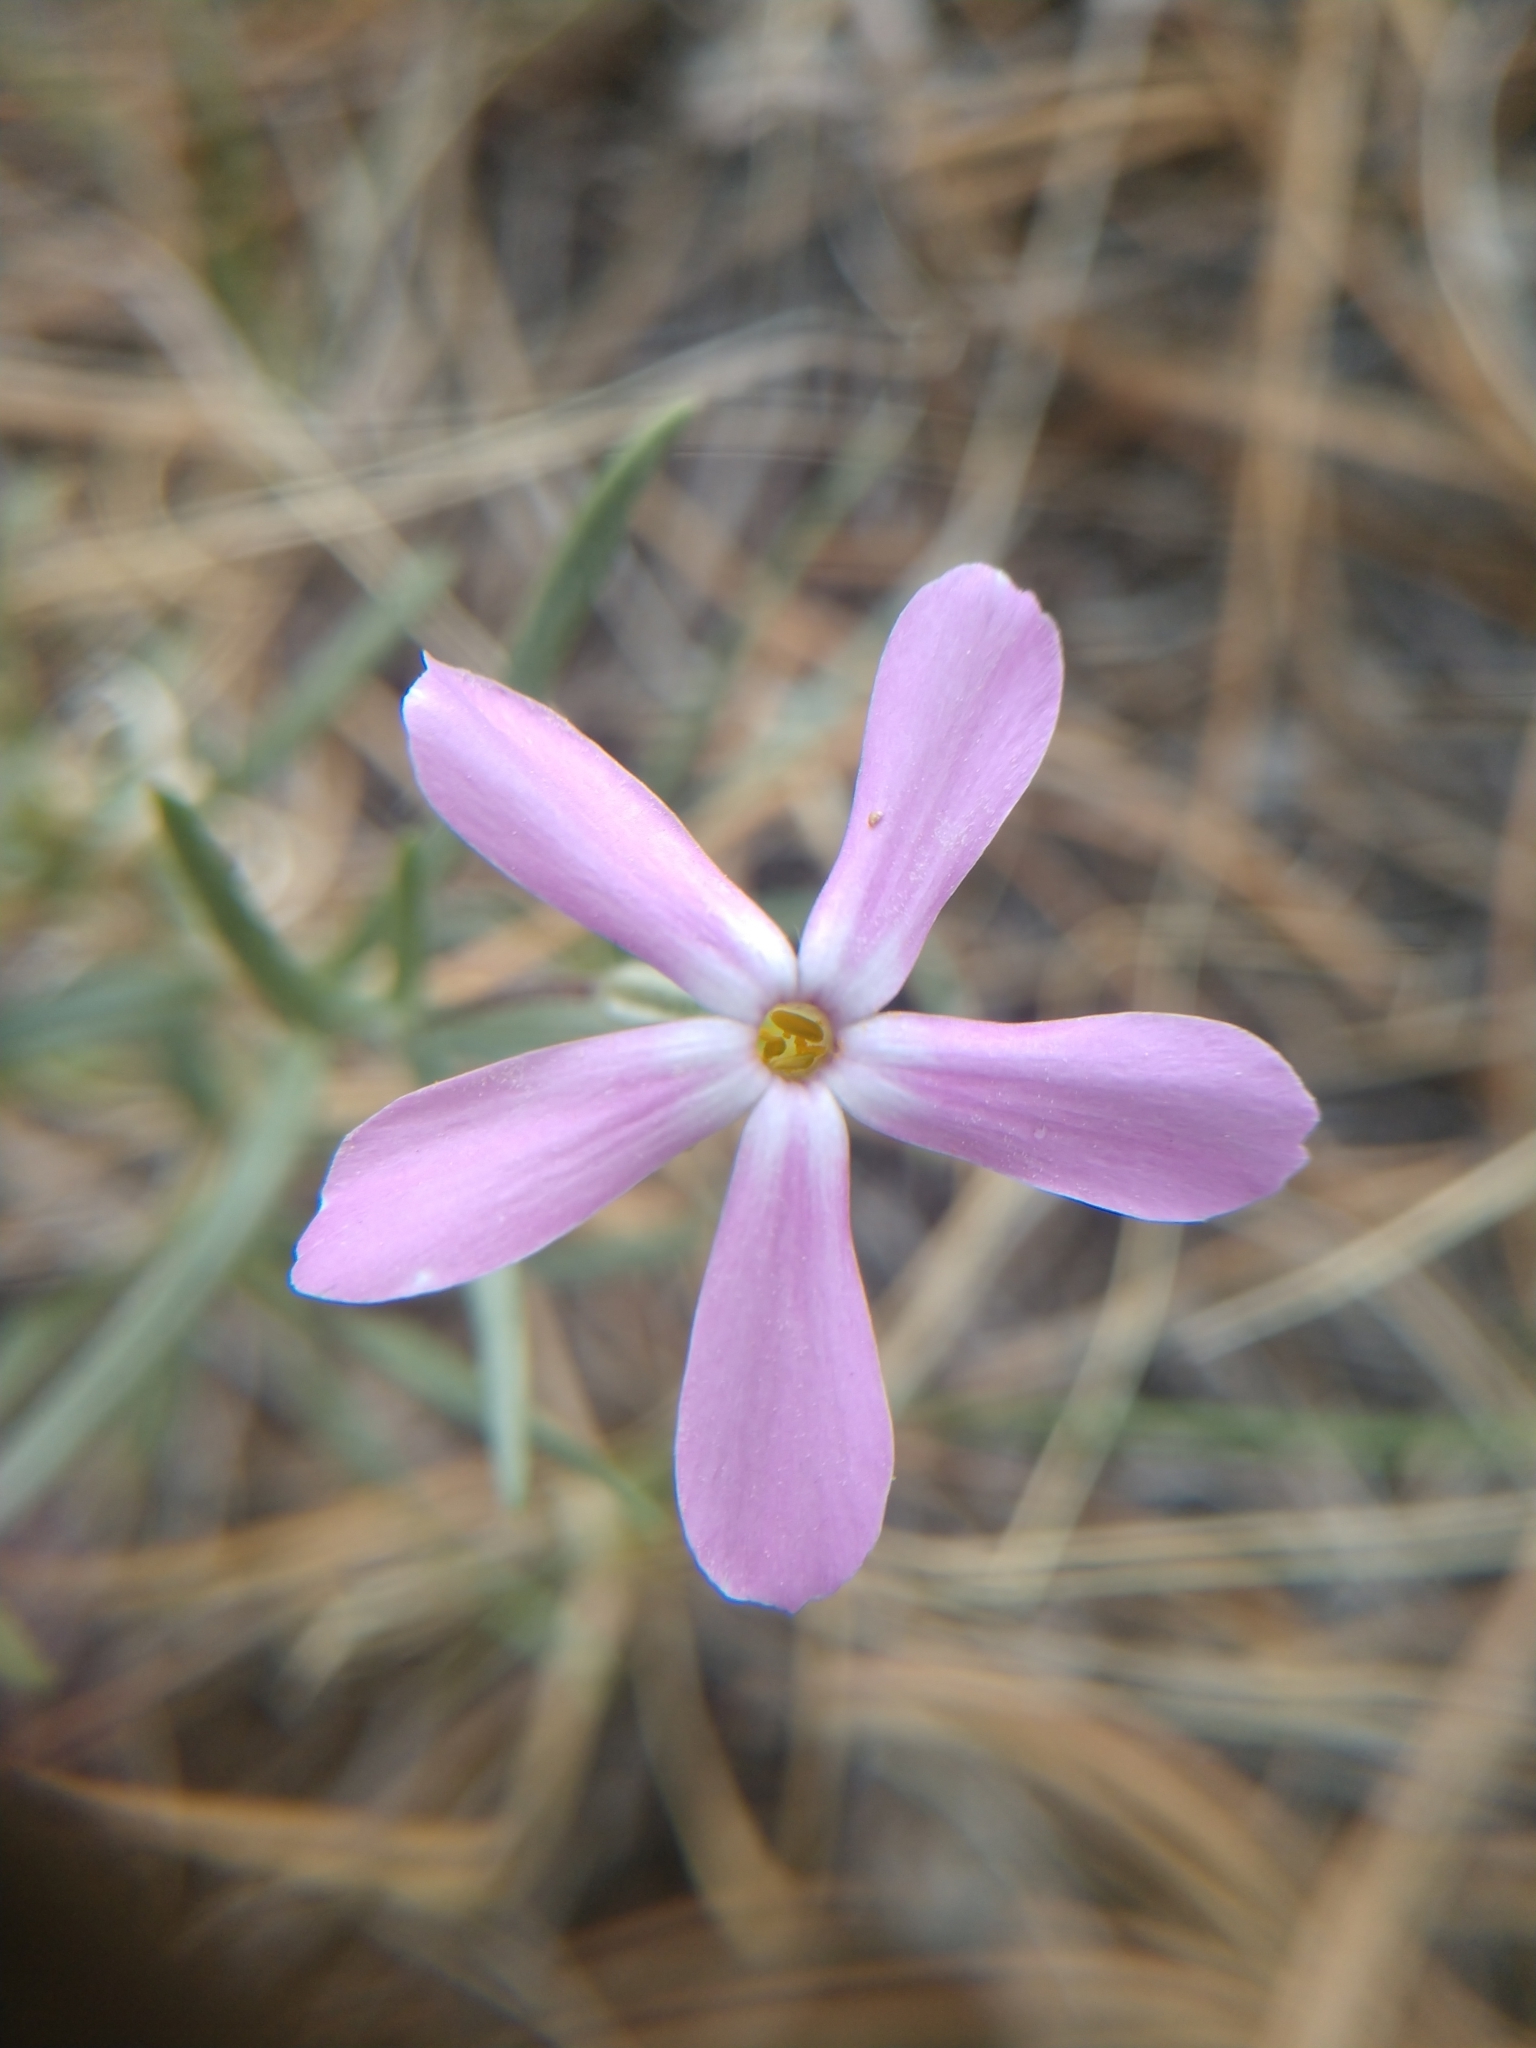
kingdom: Plantae
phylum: Tracheophyta
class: Magnoliopsida
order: Ericales
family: Polemoniaceae
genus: Phlox
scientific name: Phlox longifolia
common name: Longleaf phlox
